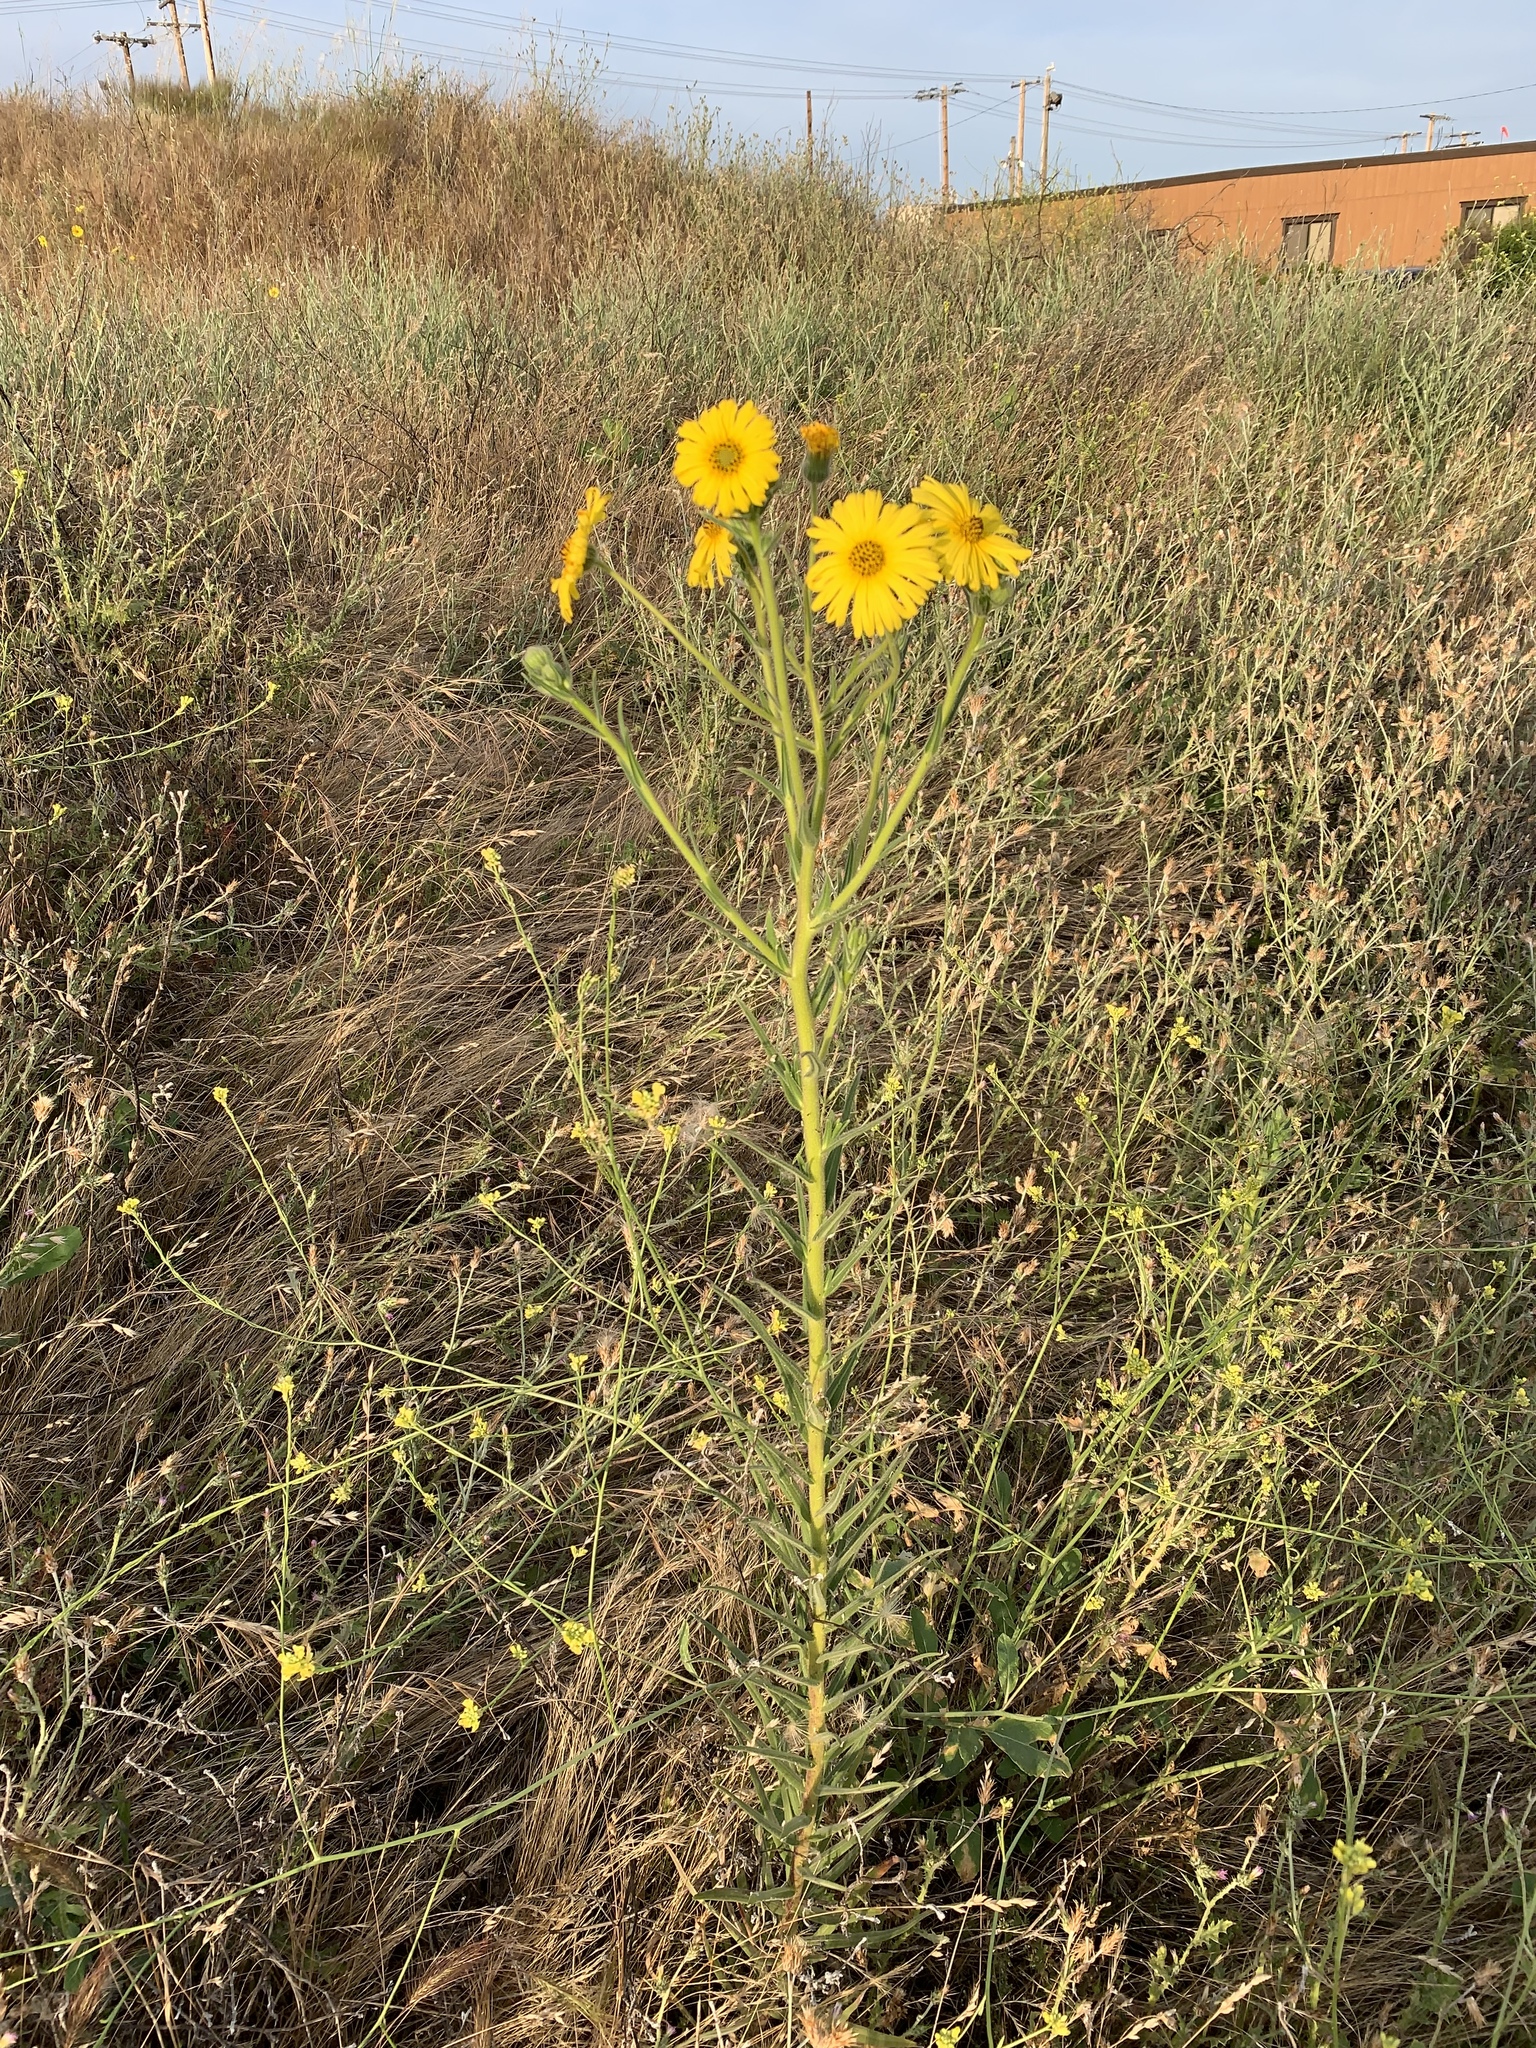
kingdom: Plantae
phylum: Tracheophyta
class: Magnoliopsida
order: Asterales
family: Asteraceae
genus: Madia
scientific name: Madia elegans
